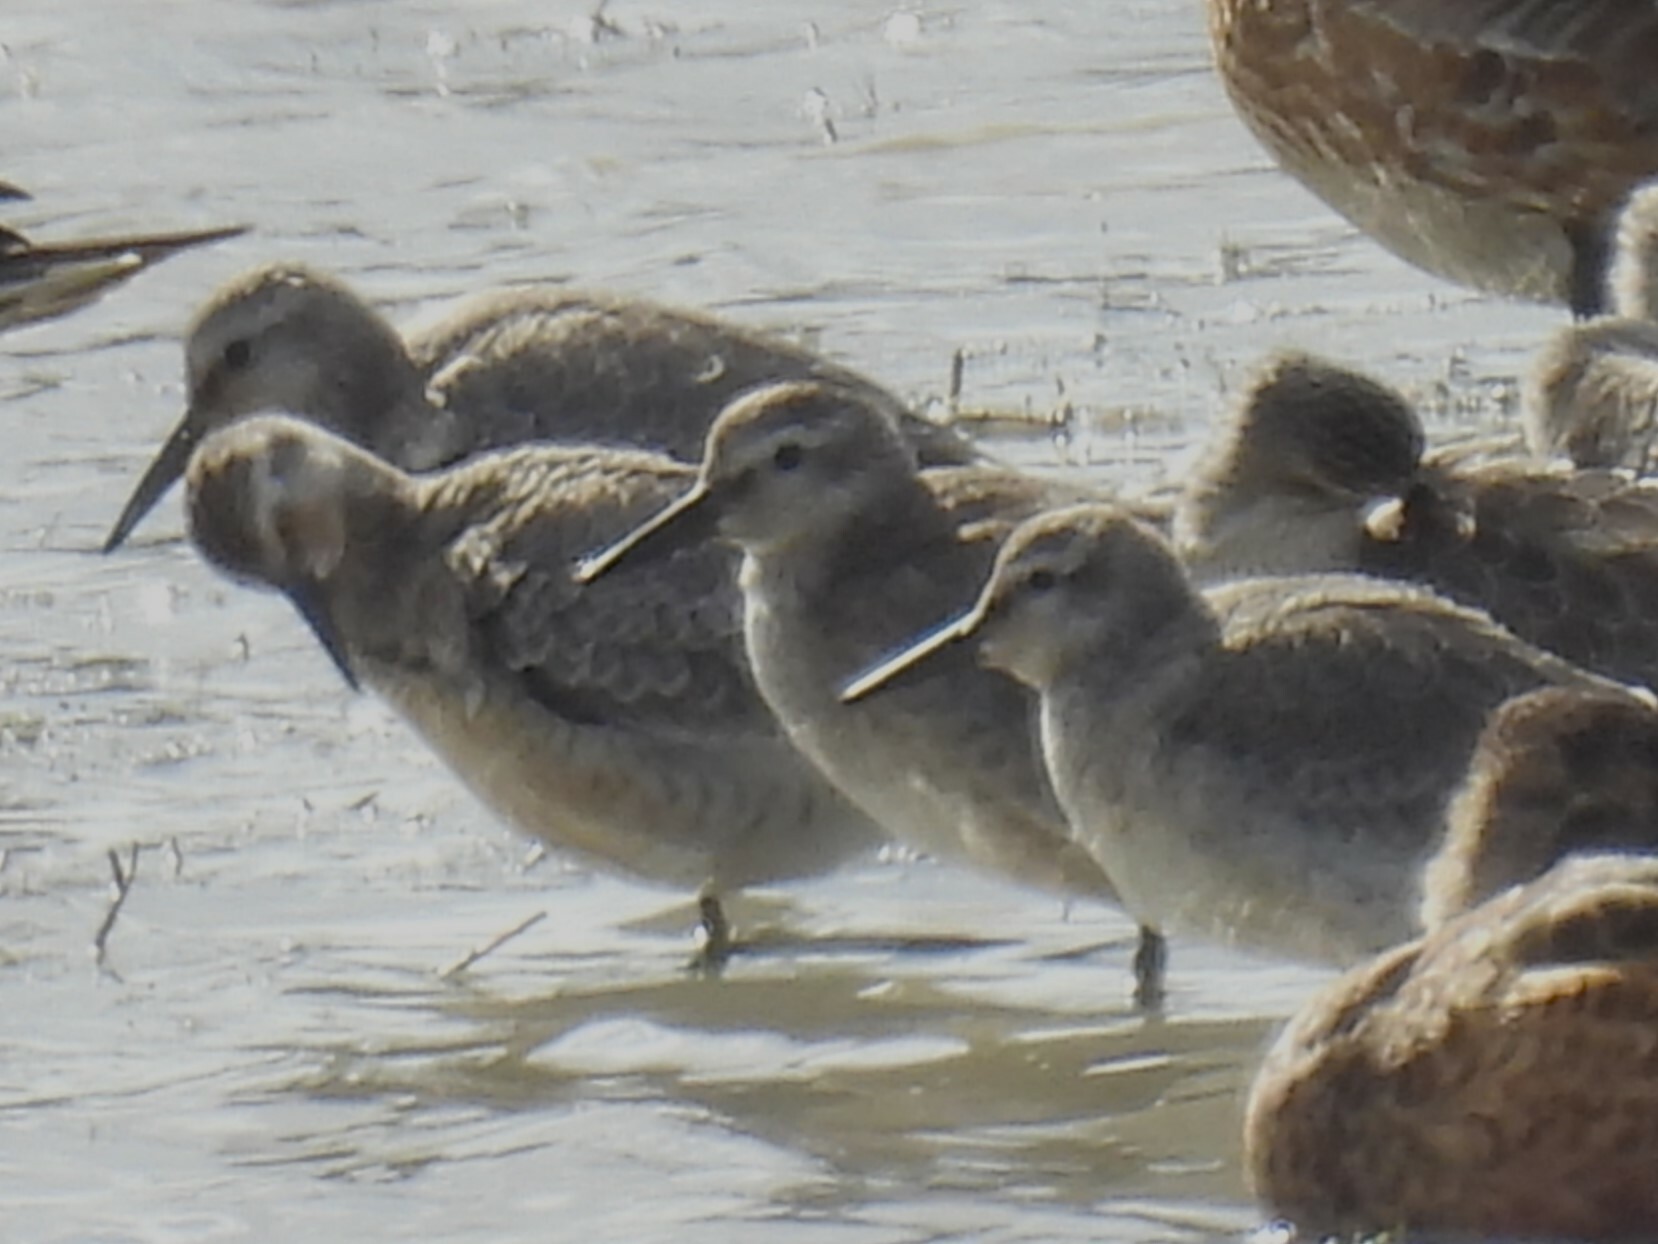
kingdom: Animalia
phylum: Chordata
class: Aves
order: Charadriiformes
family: Scolopacidae
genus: Calidris
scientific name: Calidris canutus
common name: Red knot
